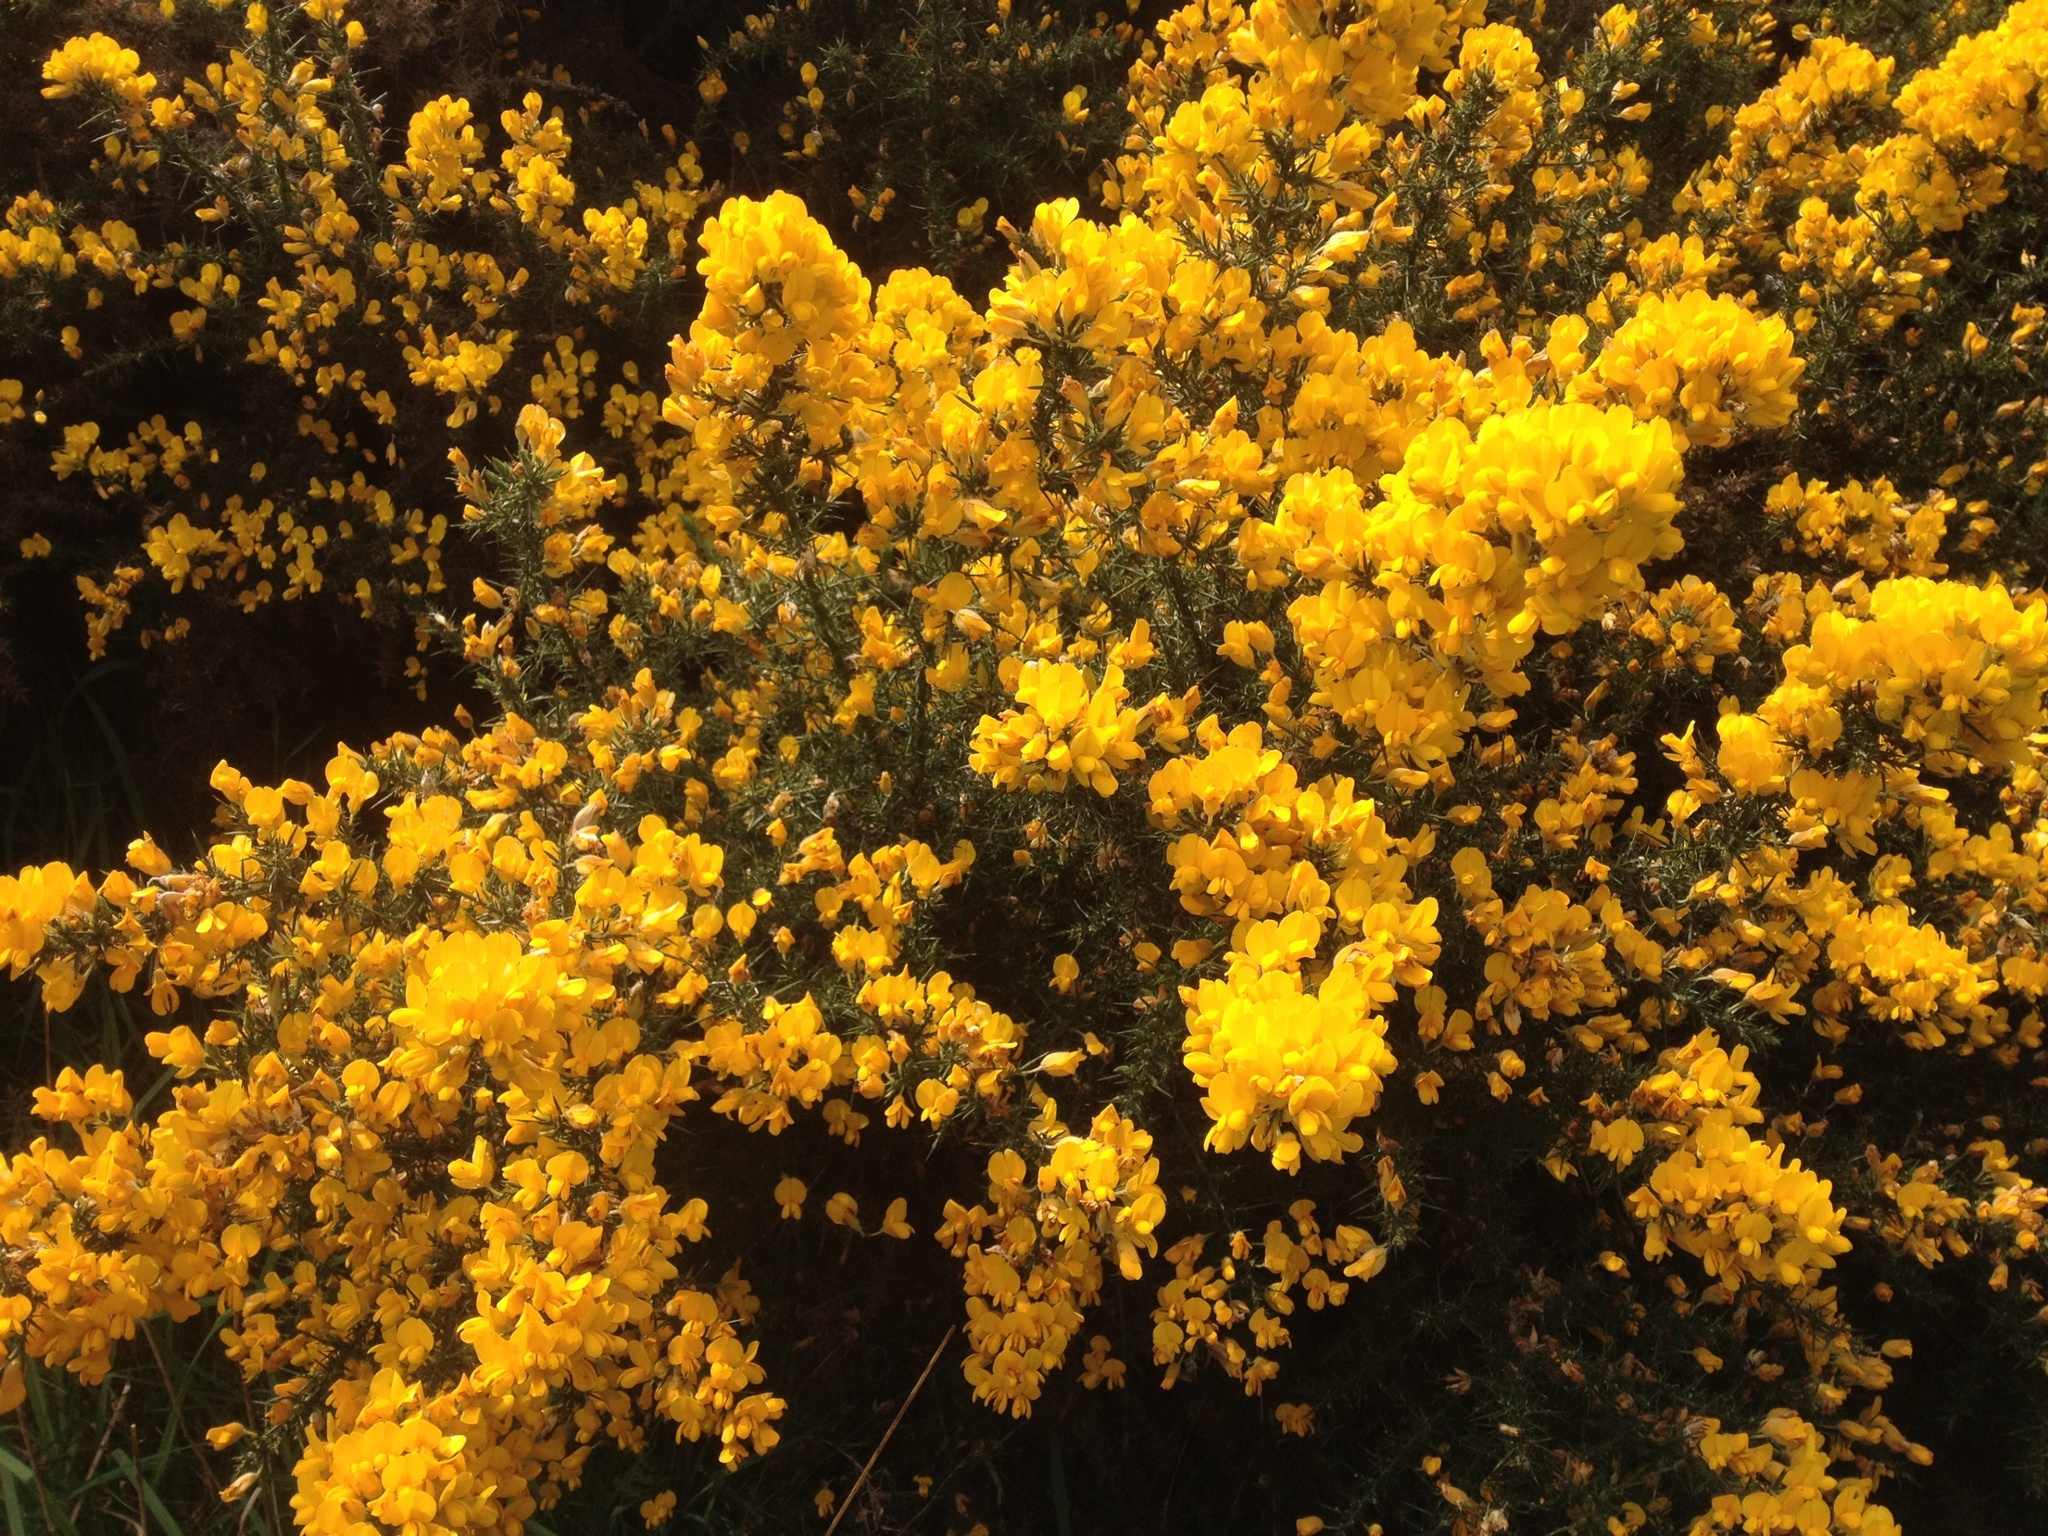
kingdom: Plantae
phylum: Tracheophyta
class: Magnoliopsida
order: Fabales
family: Fabaceae
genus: Ulex
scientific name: Ulex europaeus
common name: Common gorse
